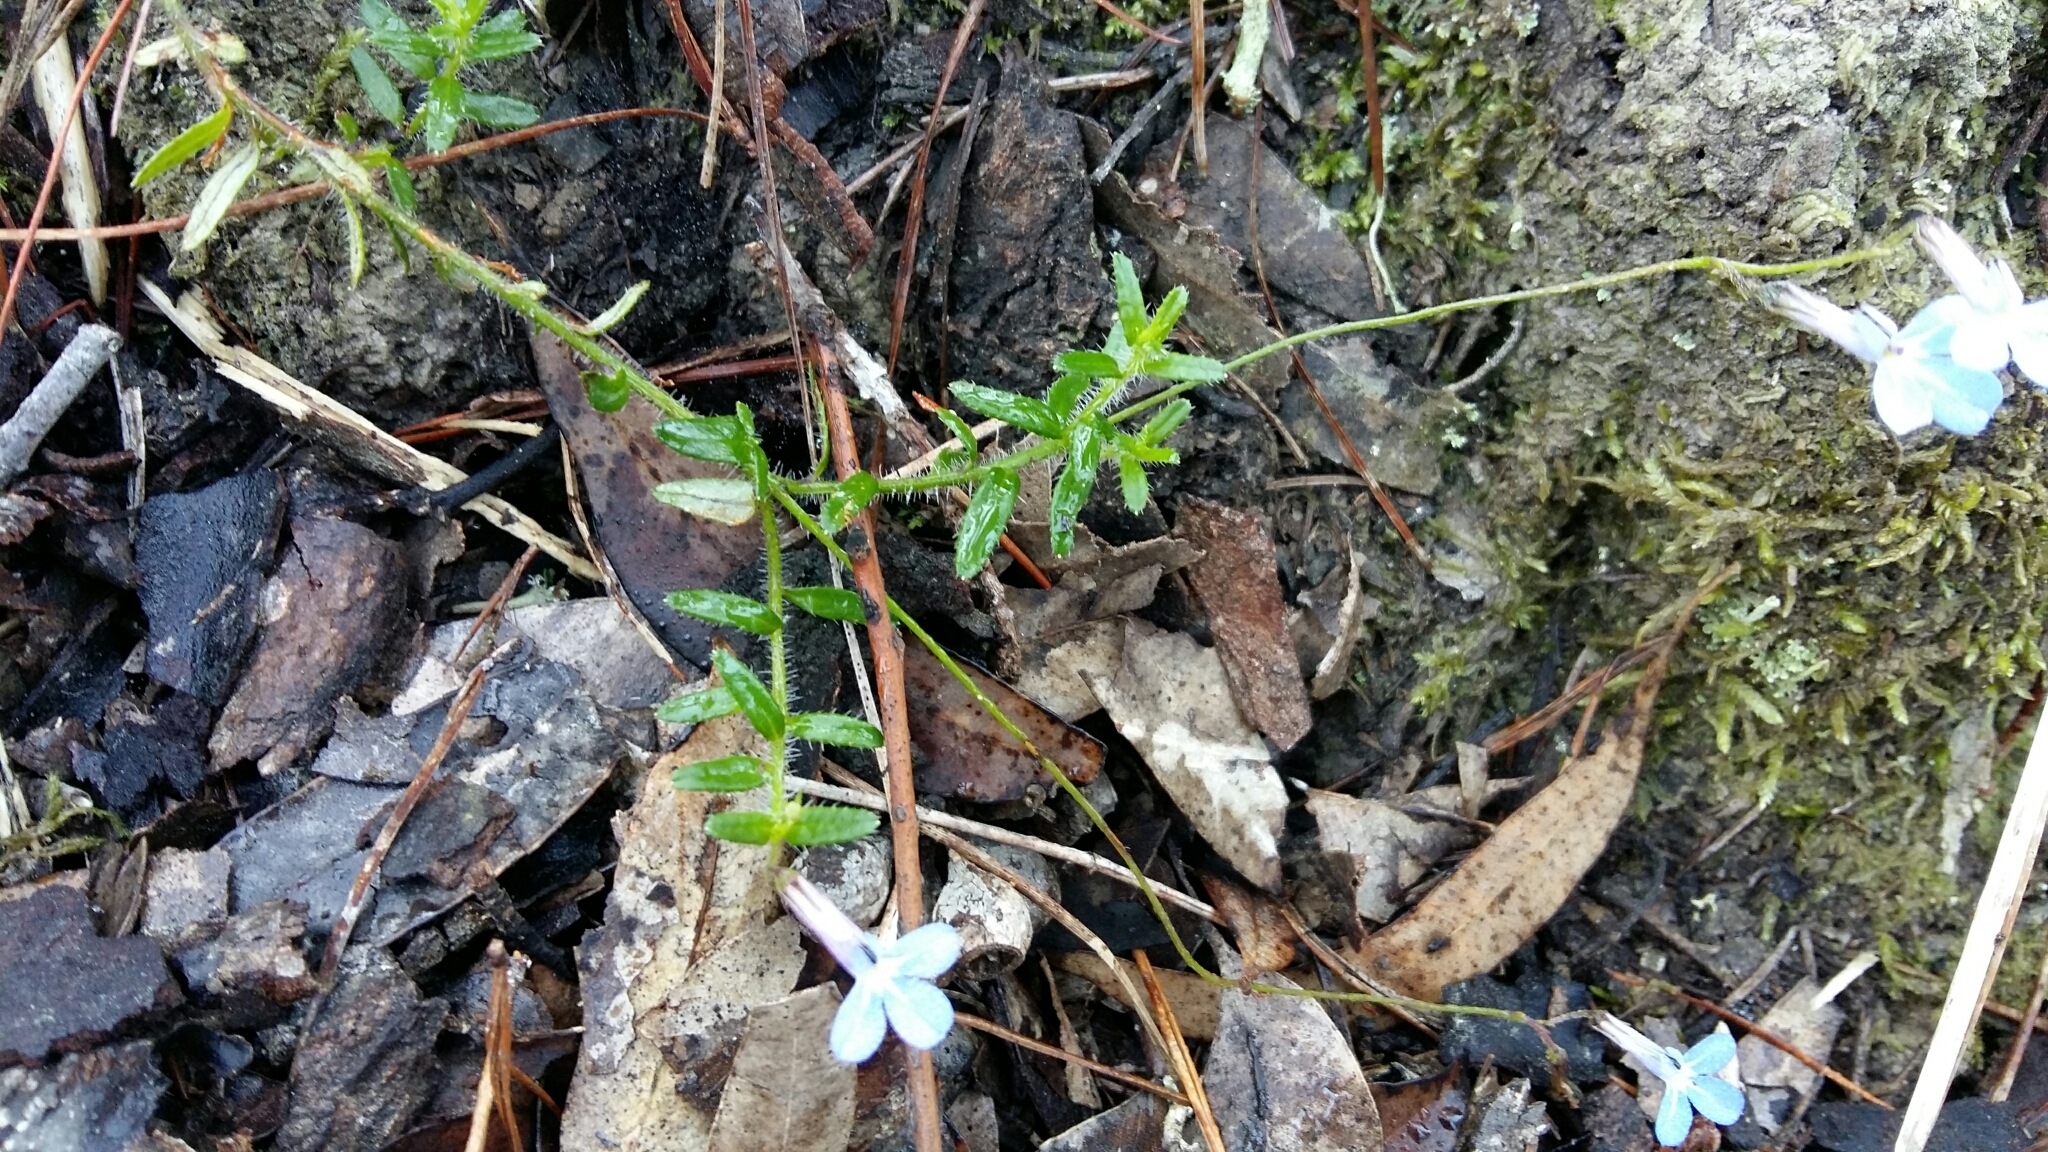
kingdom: Plantae
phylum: Tracheophyta
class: Magnoliopsida
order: Asterales
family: Campanulaceae
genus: Lobelia
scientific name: Lobelia neglecta
